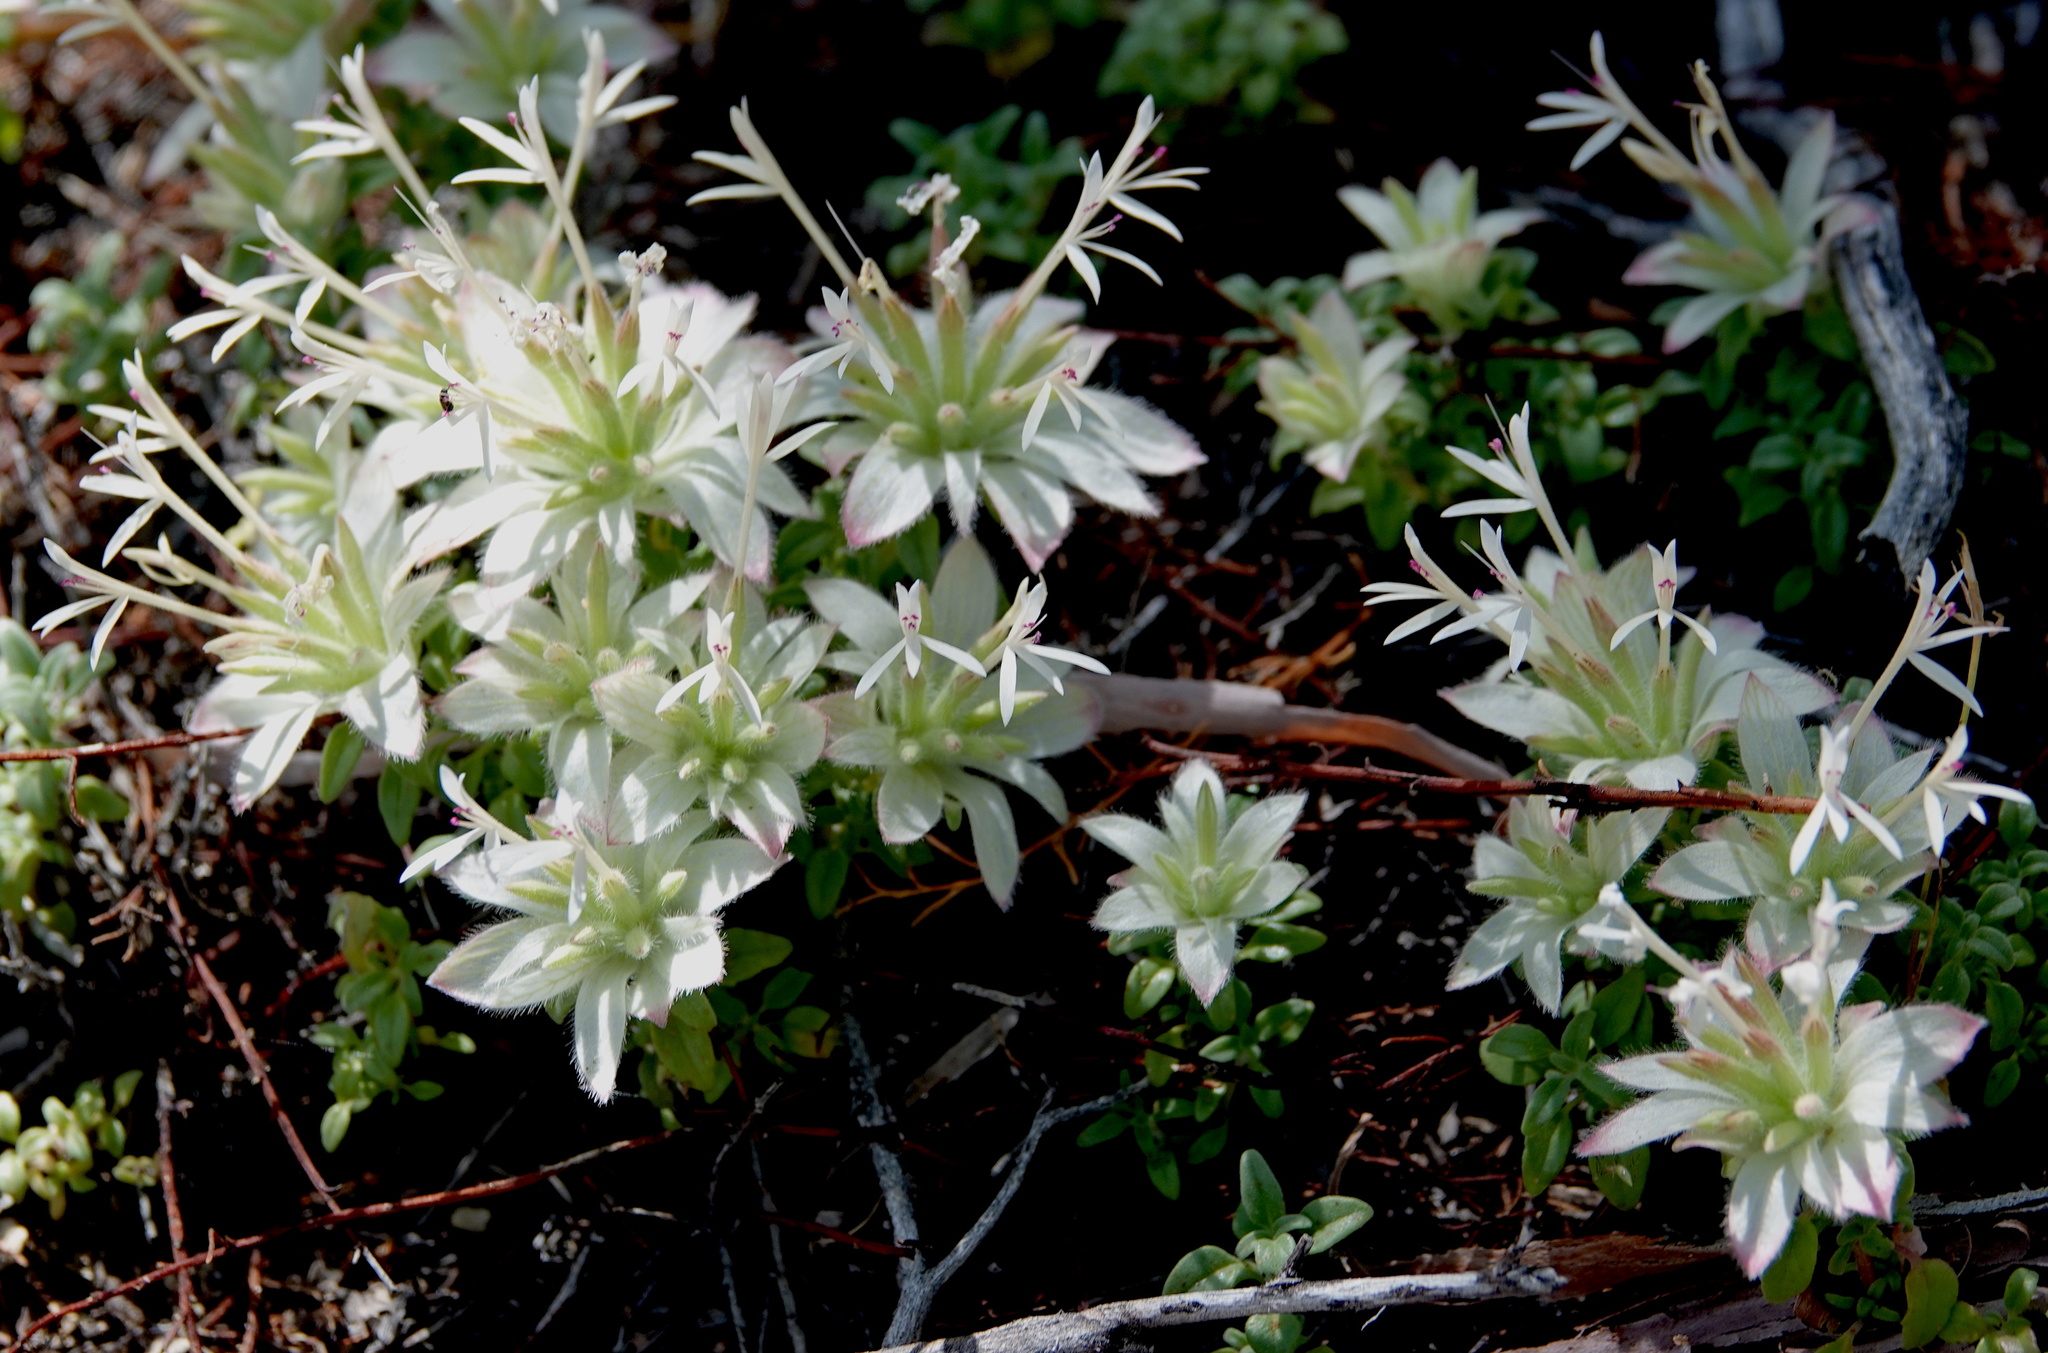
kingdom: Plantae
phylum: Tracheophyta
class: Magnoliopsida
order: Lamiales
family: Lamiaceae
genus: Monardella
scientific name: Monardella nana
